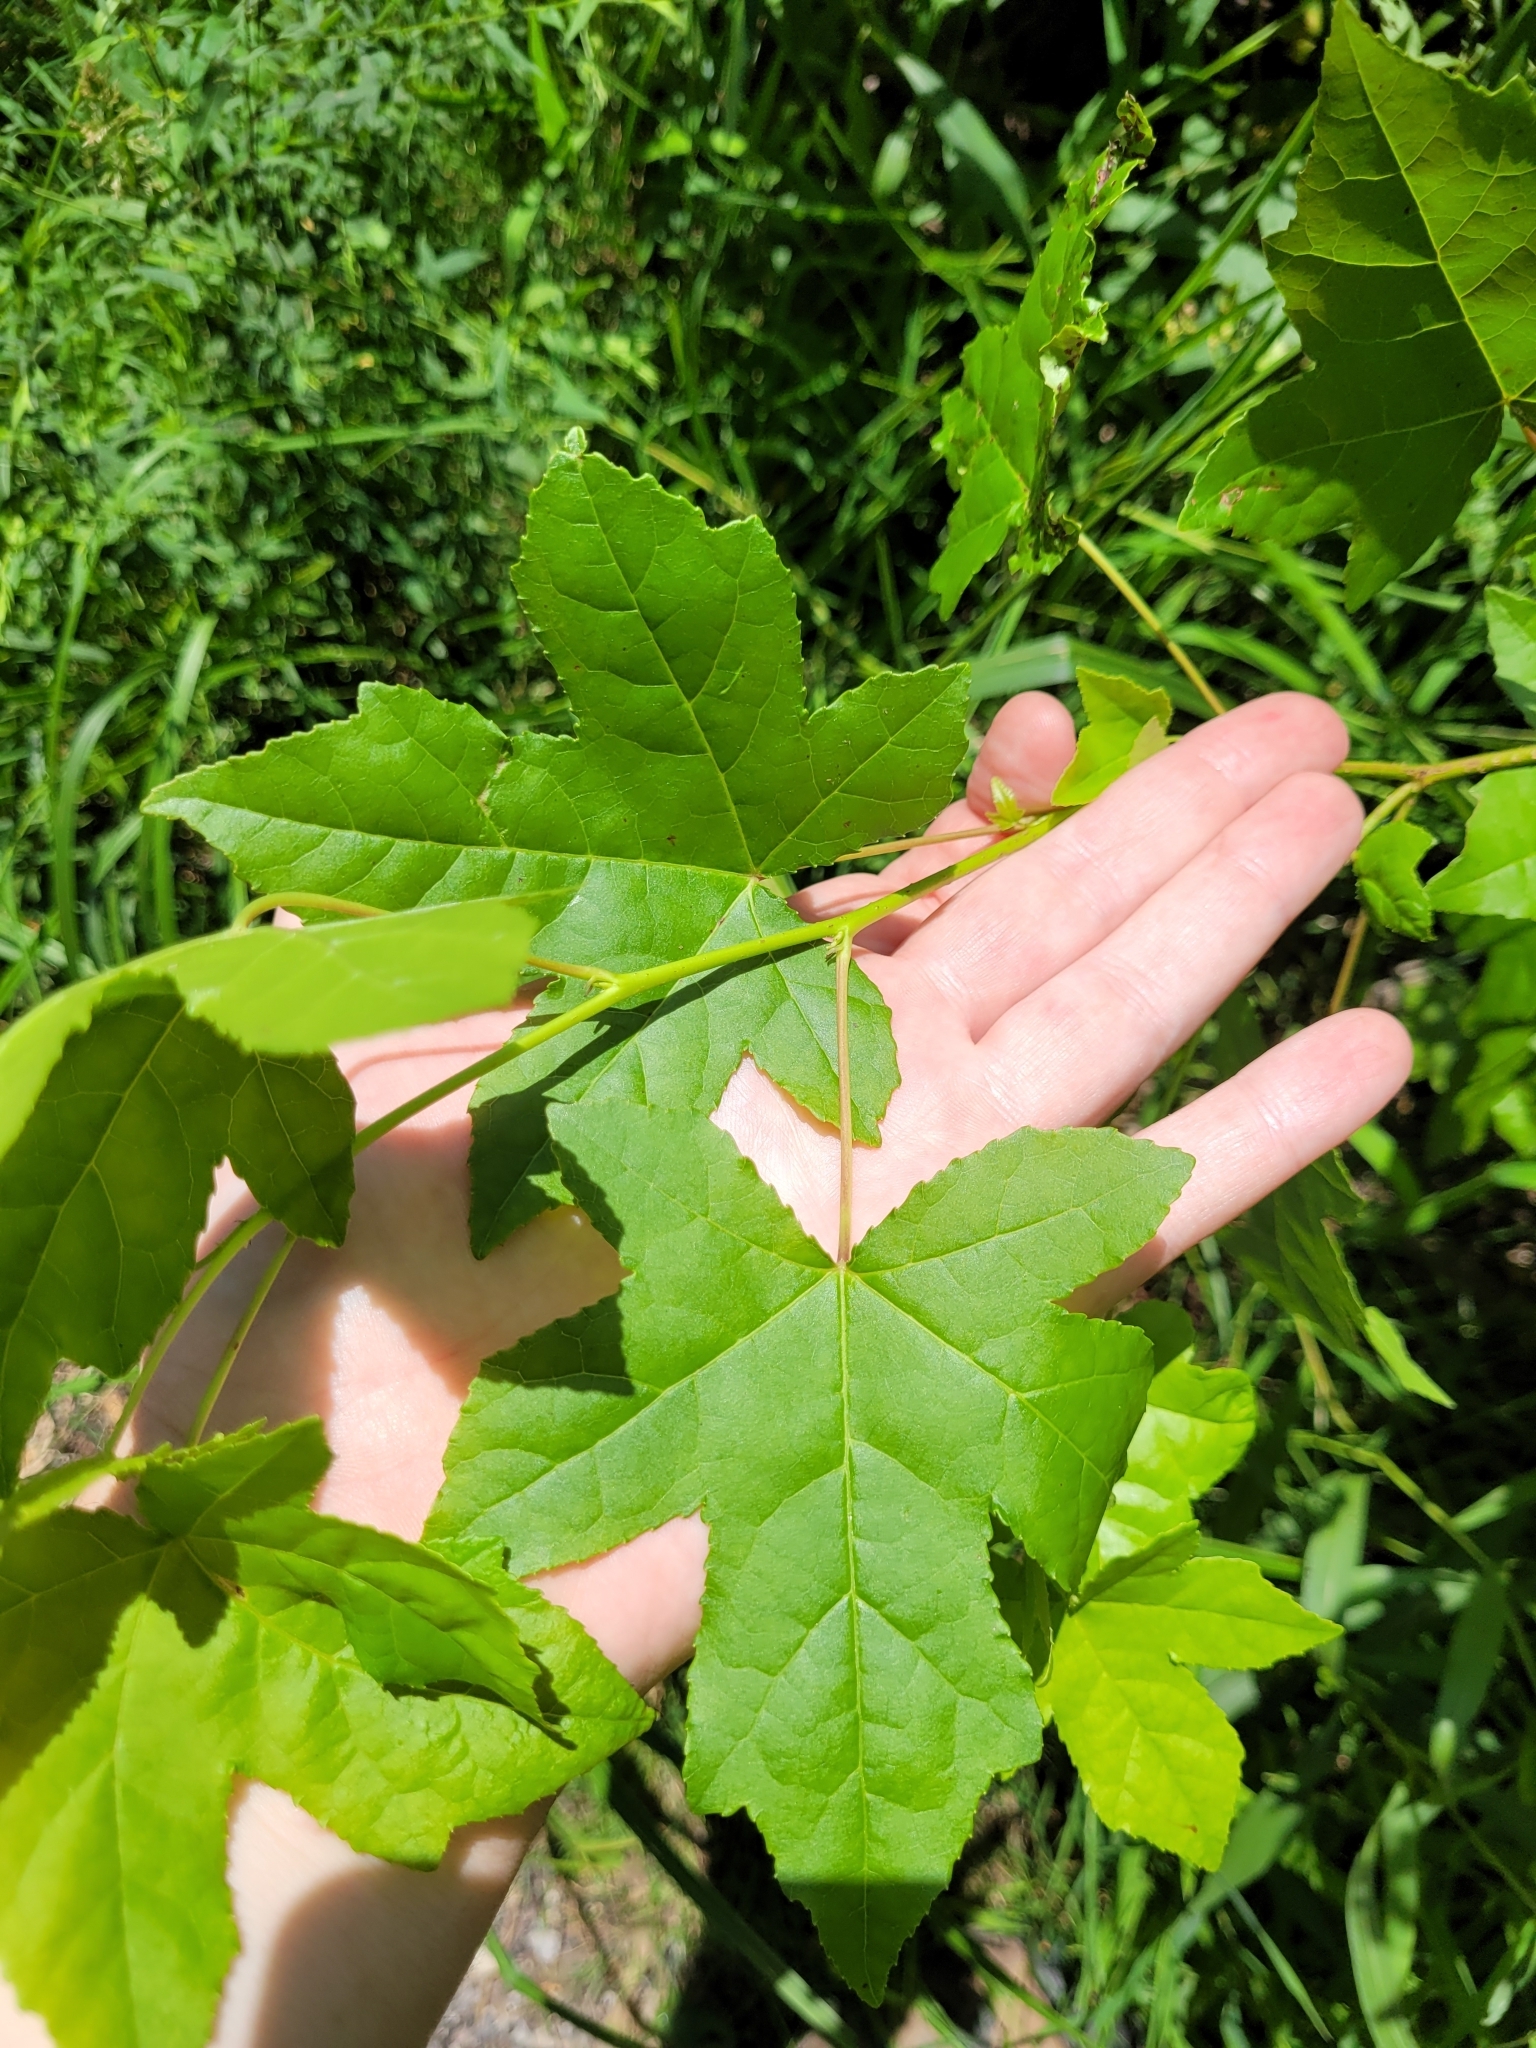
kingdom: Plantae
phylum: Tracheophyta
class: Magnoliopsida
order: Saxifragales
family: Altingiaceae
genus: Liquidambar
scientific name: Liquidambar styraciflua
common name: Sweet gum
